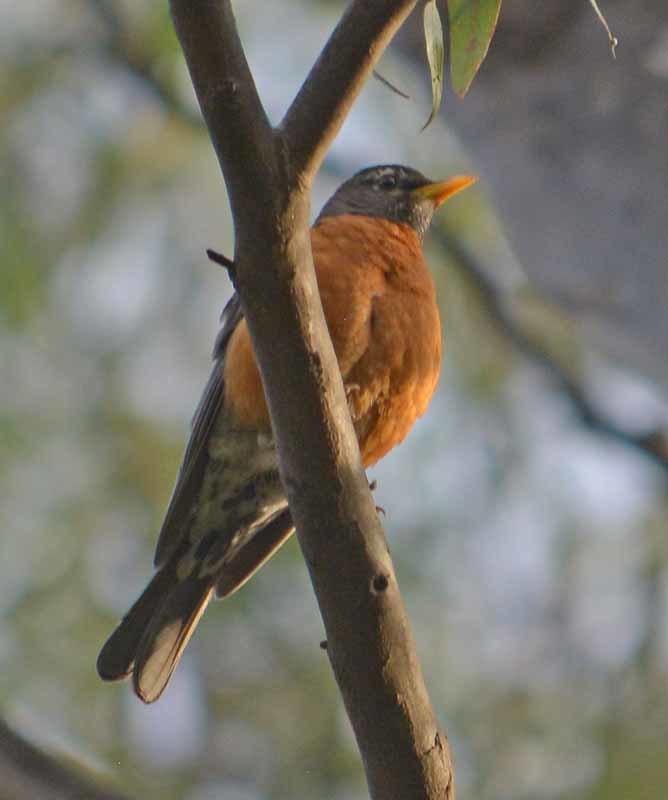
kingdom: Animalia
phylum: Chordata
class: Aves
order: Passeriformes
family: Turdidae
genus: Turdus
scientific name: Turdus migratorius
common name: American robin
